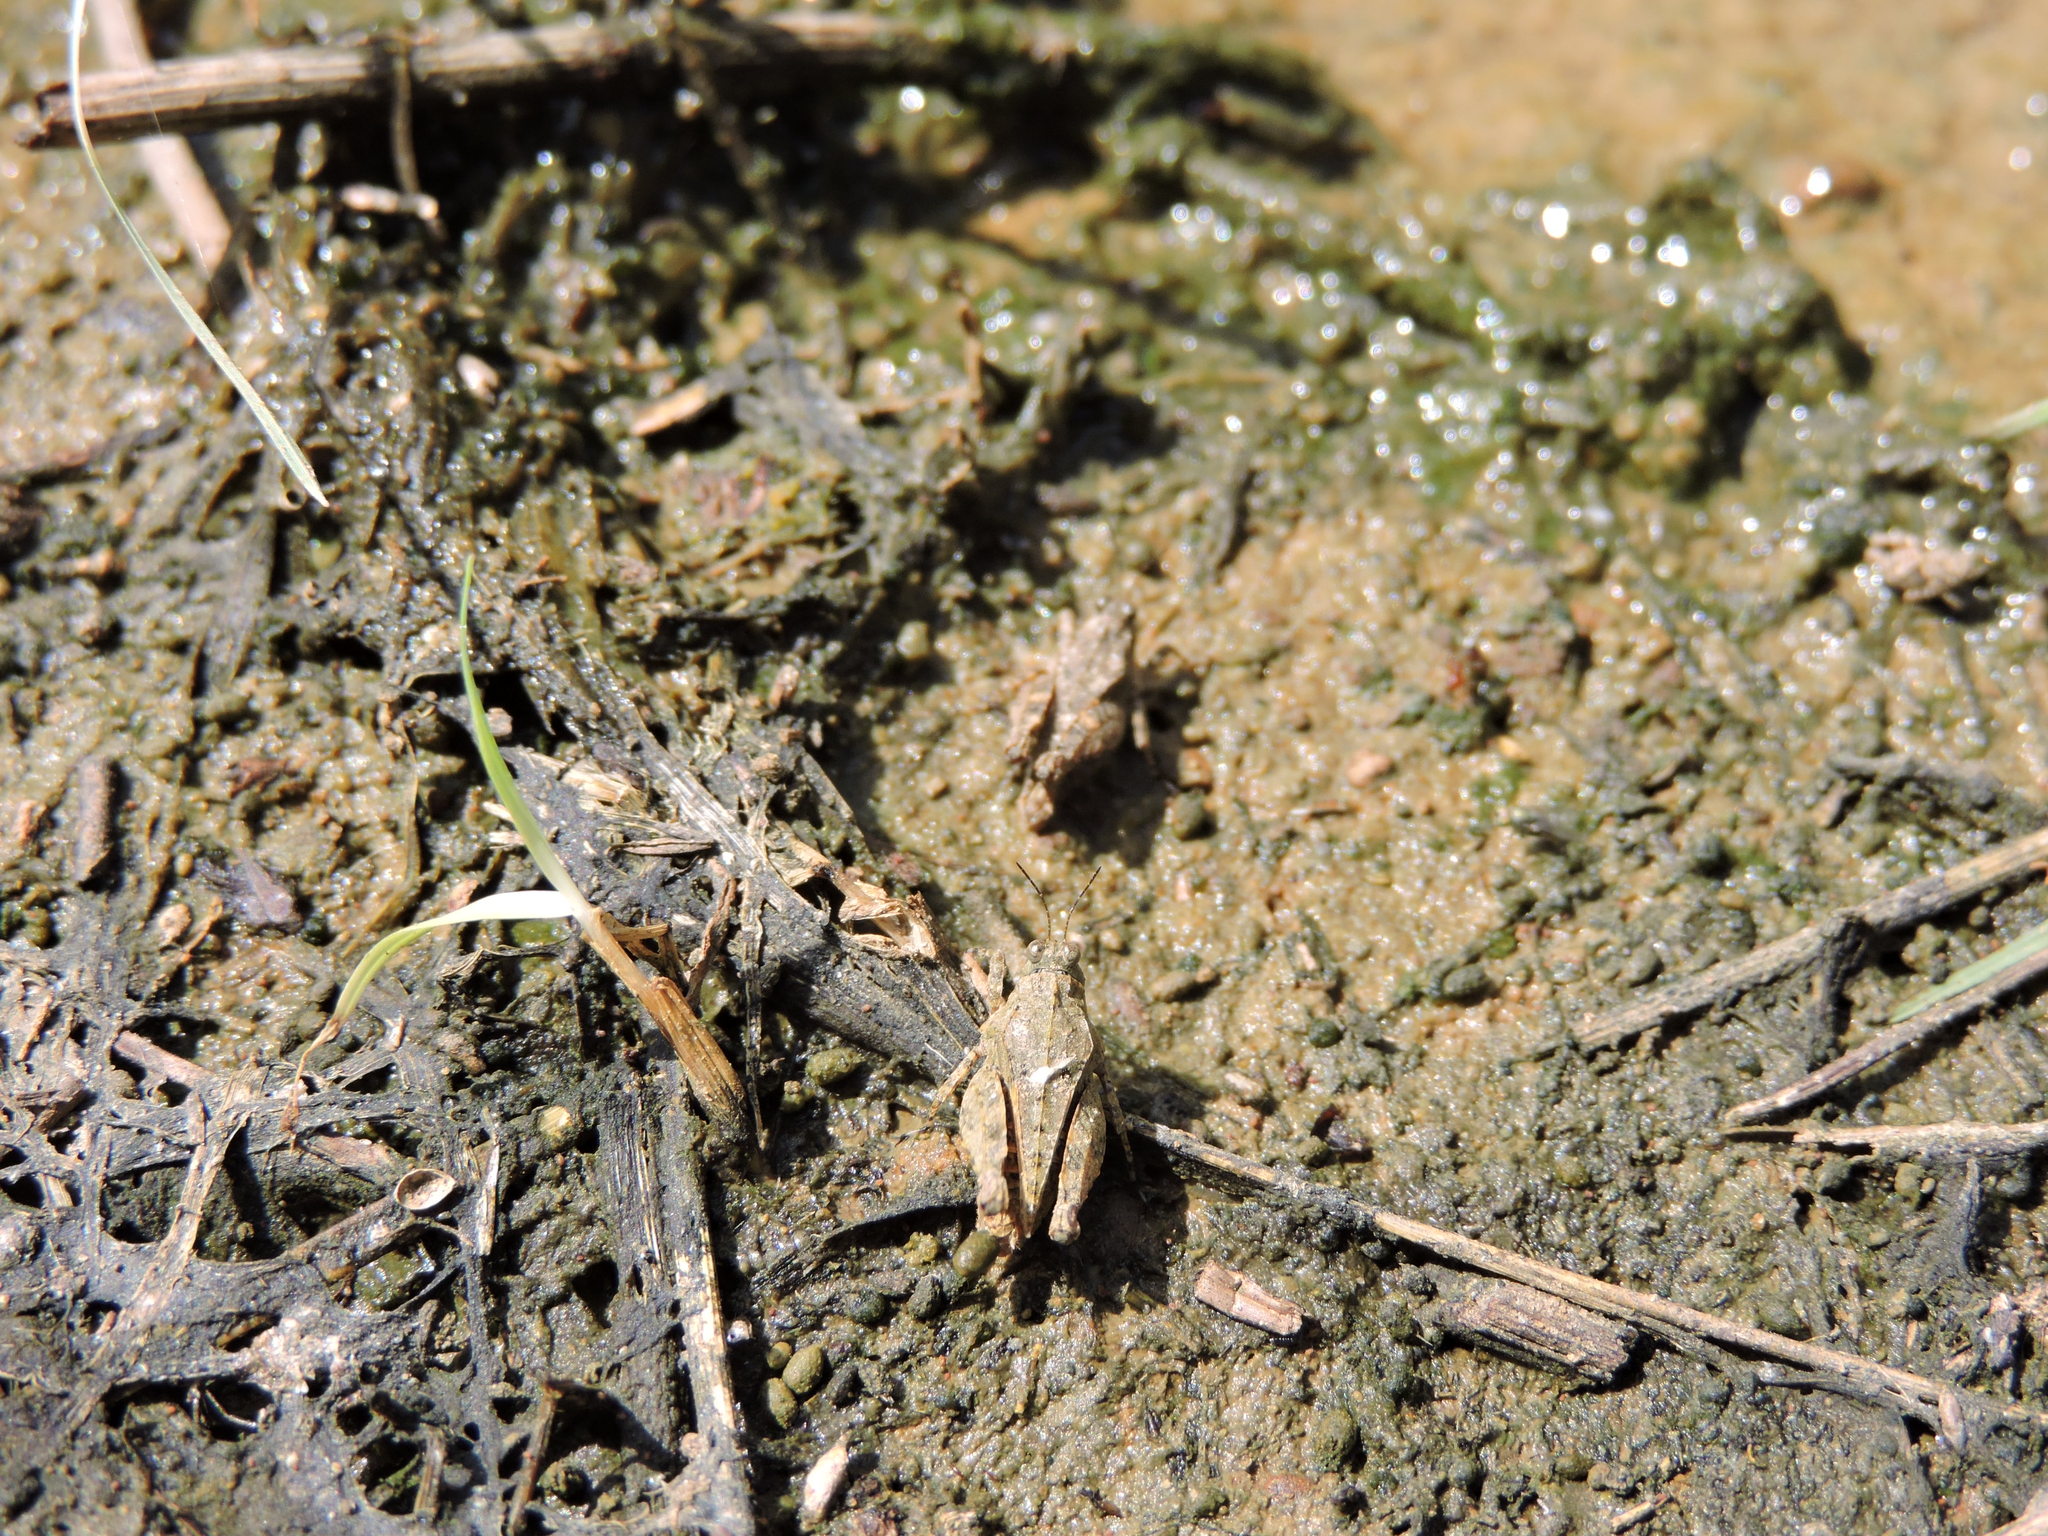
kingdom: Animalia
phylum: Arthropoda
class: Insecta
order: Orthoptera
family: Tetrigidae
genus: Paratettix
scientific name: Paratettix mexicanus
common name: Mexican pygmy grasshopper
